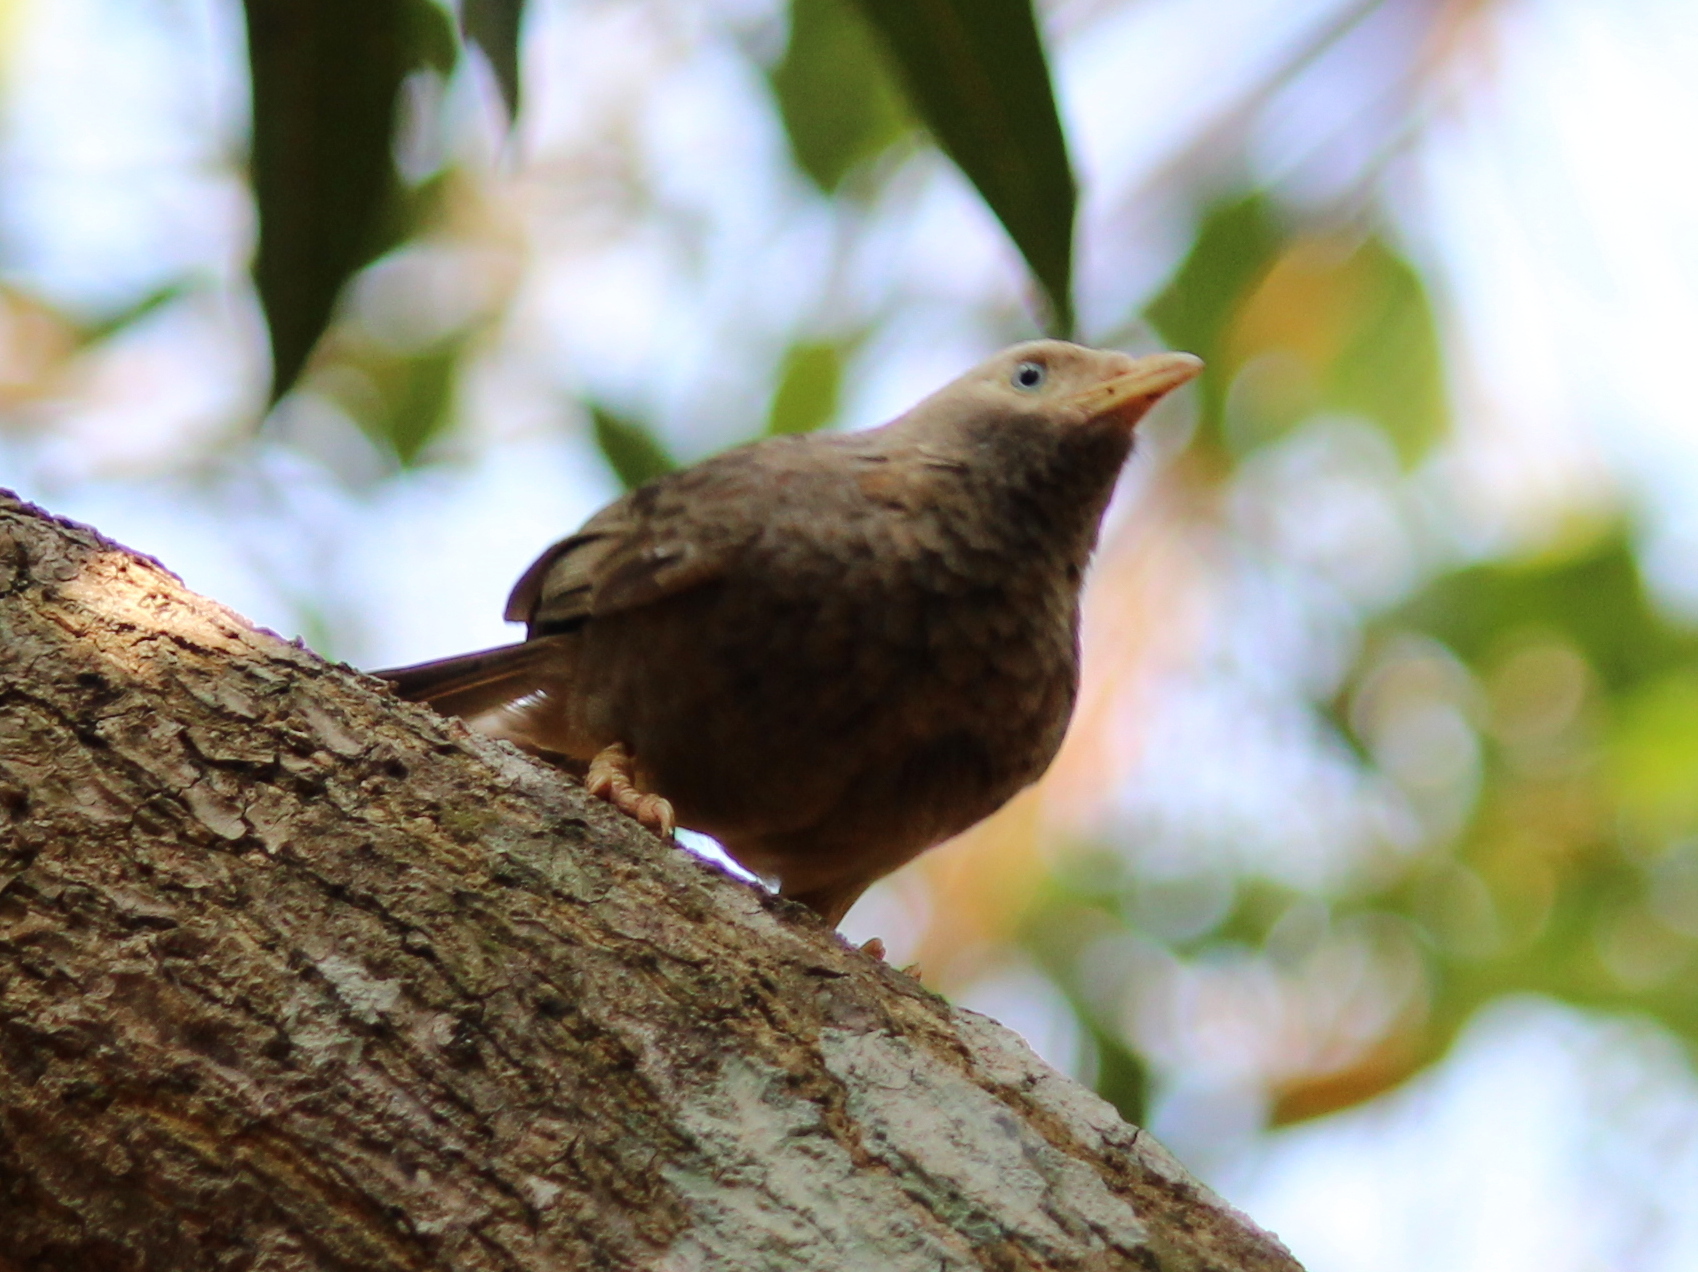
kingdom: Animalia
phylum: Chordata
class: Aves
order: Passeriformes
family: Leiothrichidae
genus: Turdoides
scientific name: Turdoides affinis
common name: Yellow-billed babbler
